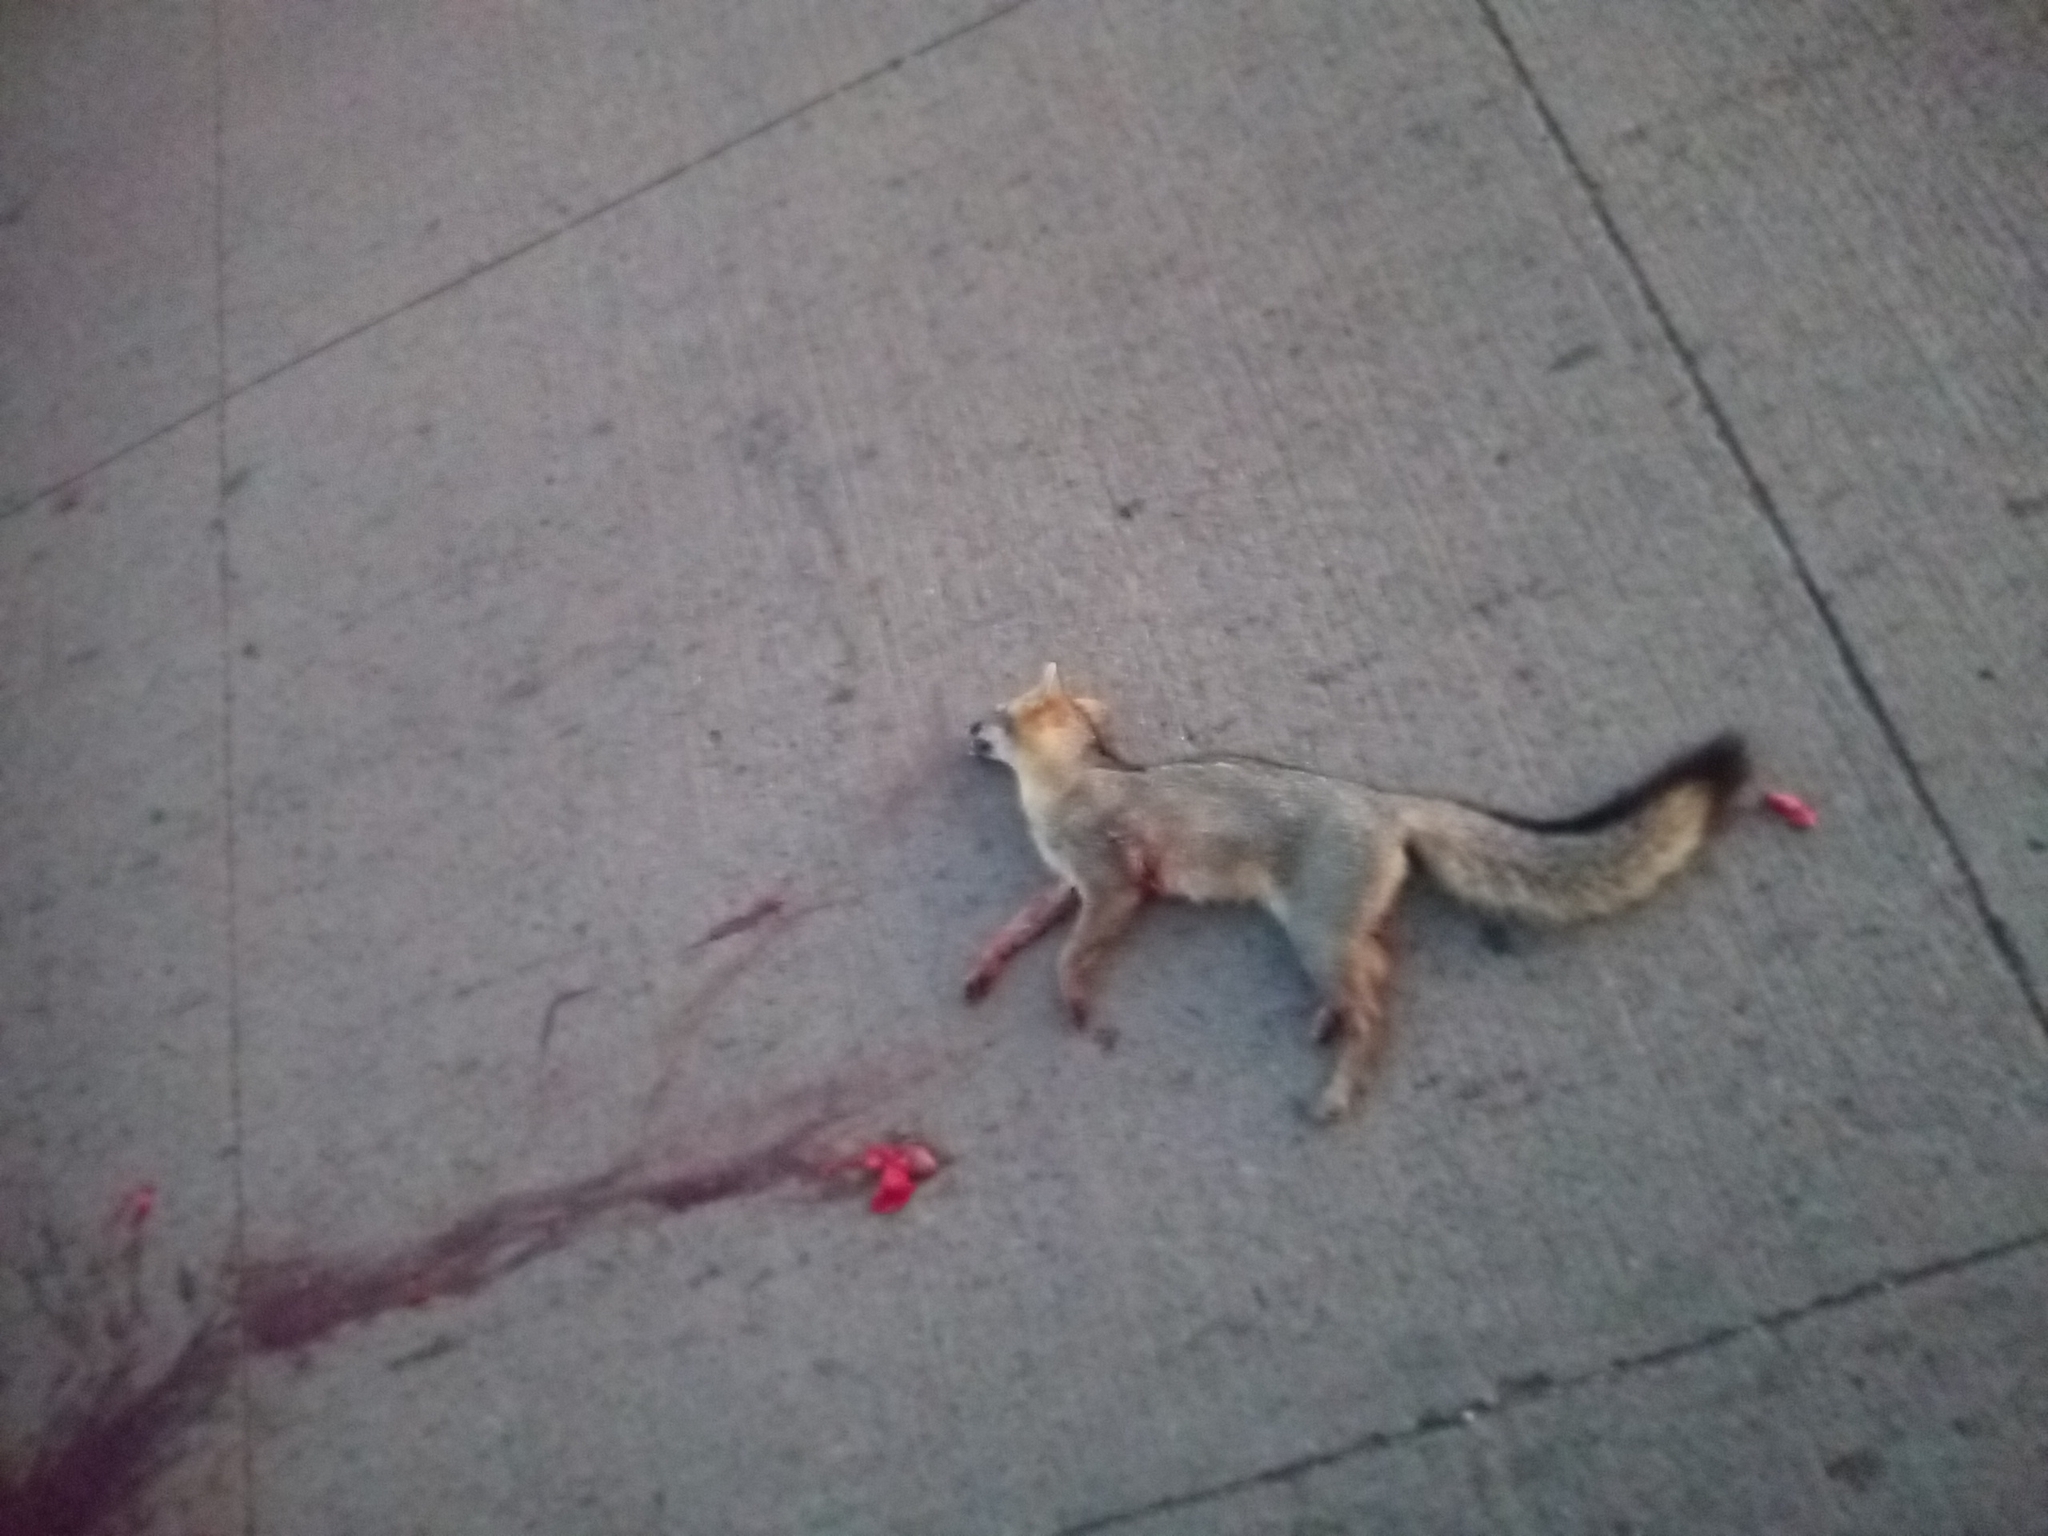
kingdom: Animalia
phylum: Chordata
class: Mammalia
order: Carnivora
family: Canidae
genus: Urocyon
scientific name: Urocyon cinereoargenteus
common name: Gray fox
